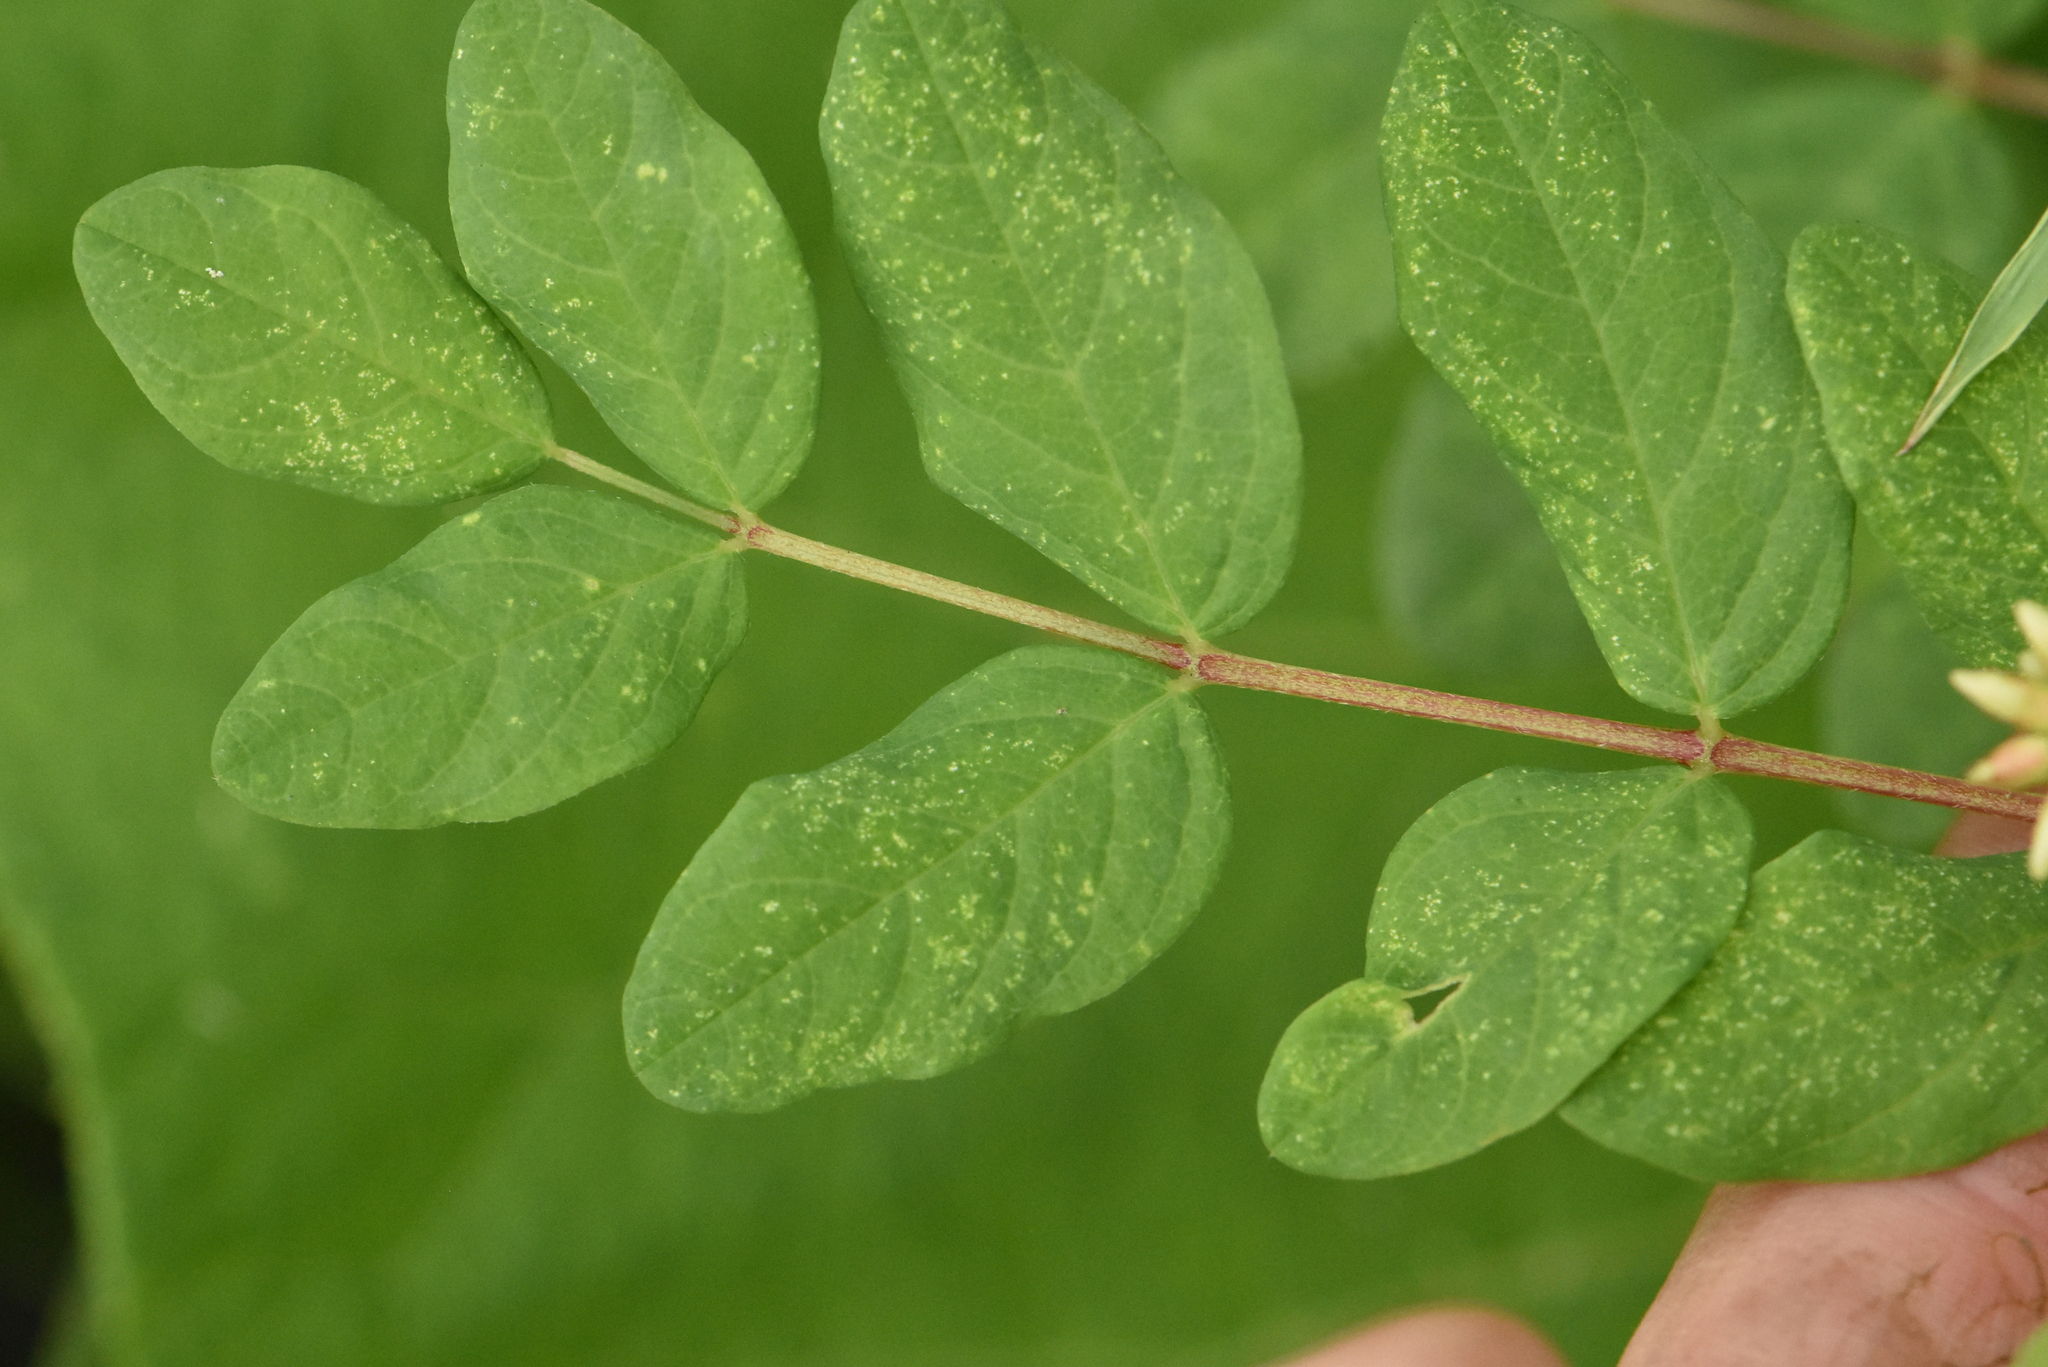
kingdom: Plantae
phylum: Tracheophyta
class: Magnoliopsida
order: Fabales
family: Fabaceae
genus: Astragalus
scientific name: Astragalus glycyphyllos
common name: Wild liquorice
